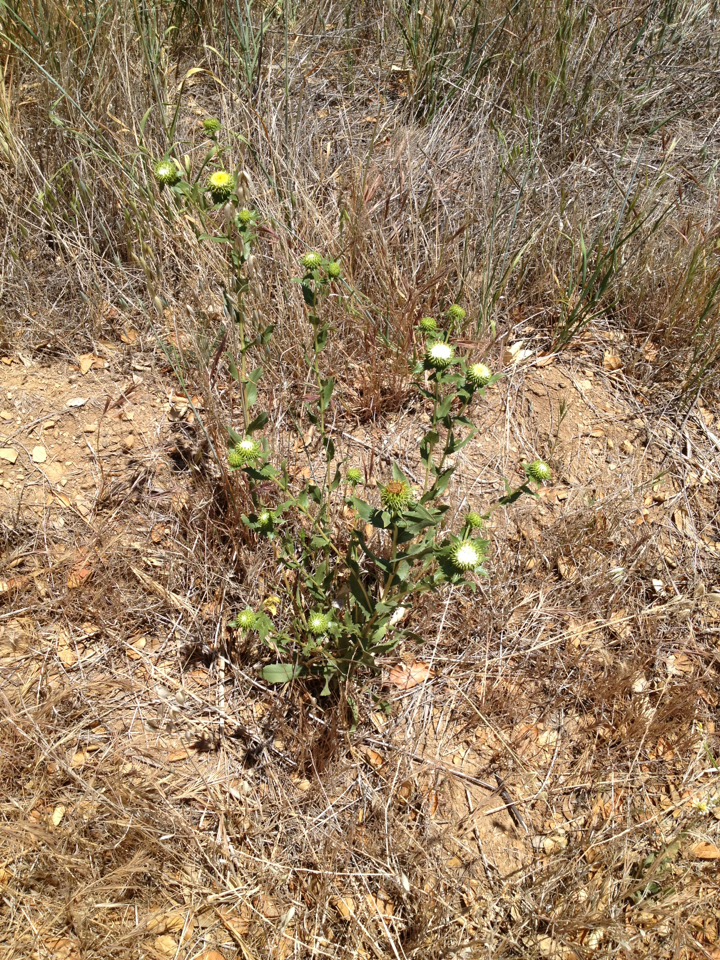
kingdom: Plantae
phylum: Tracheophyta
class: Magnoliopsida
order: Asterales
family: Asteraceae
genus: Grindelia
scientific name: Grindelia hirsutula
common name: Hairy gumweed
